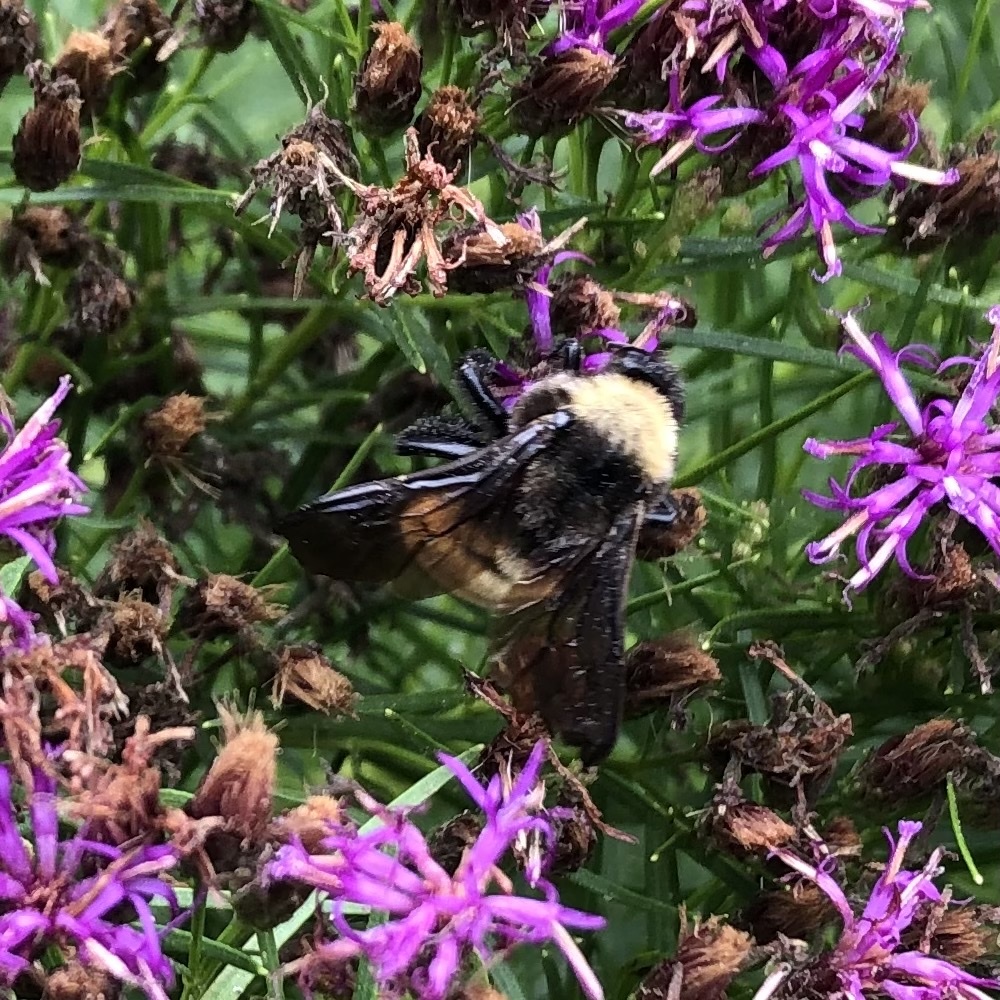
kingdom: Animalia
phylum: Arthropoda
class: Insecta
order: Hymenoptera
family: Apidae
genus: Bombus
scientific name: Bombus pensylvanicus
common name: Bumble bee
